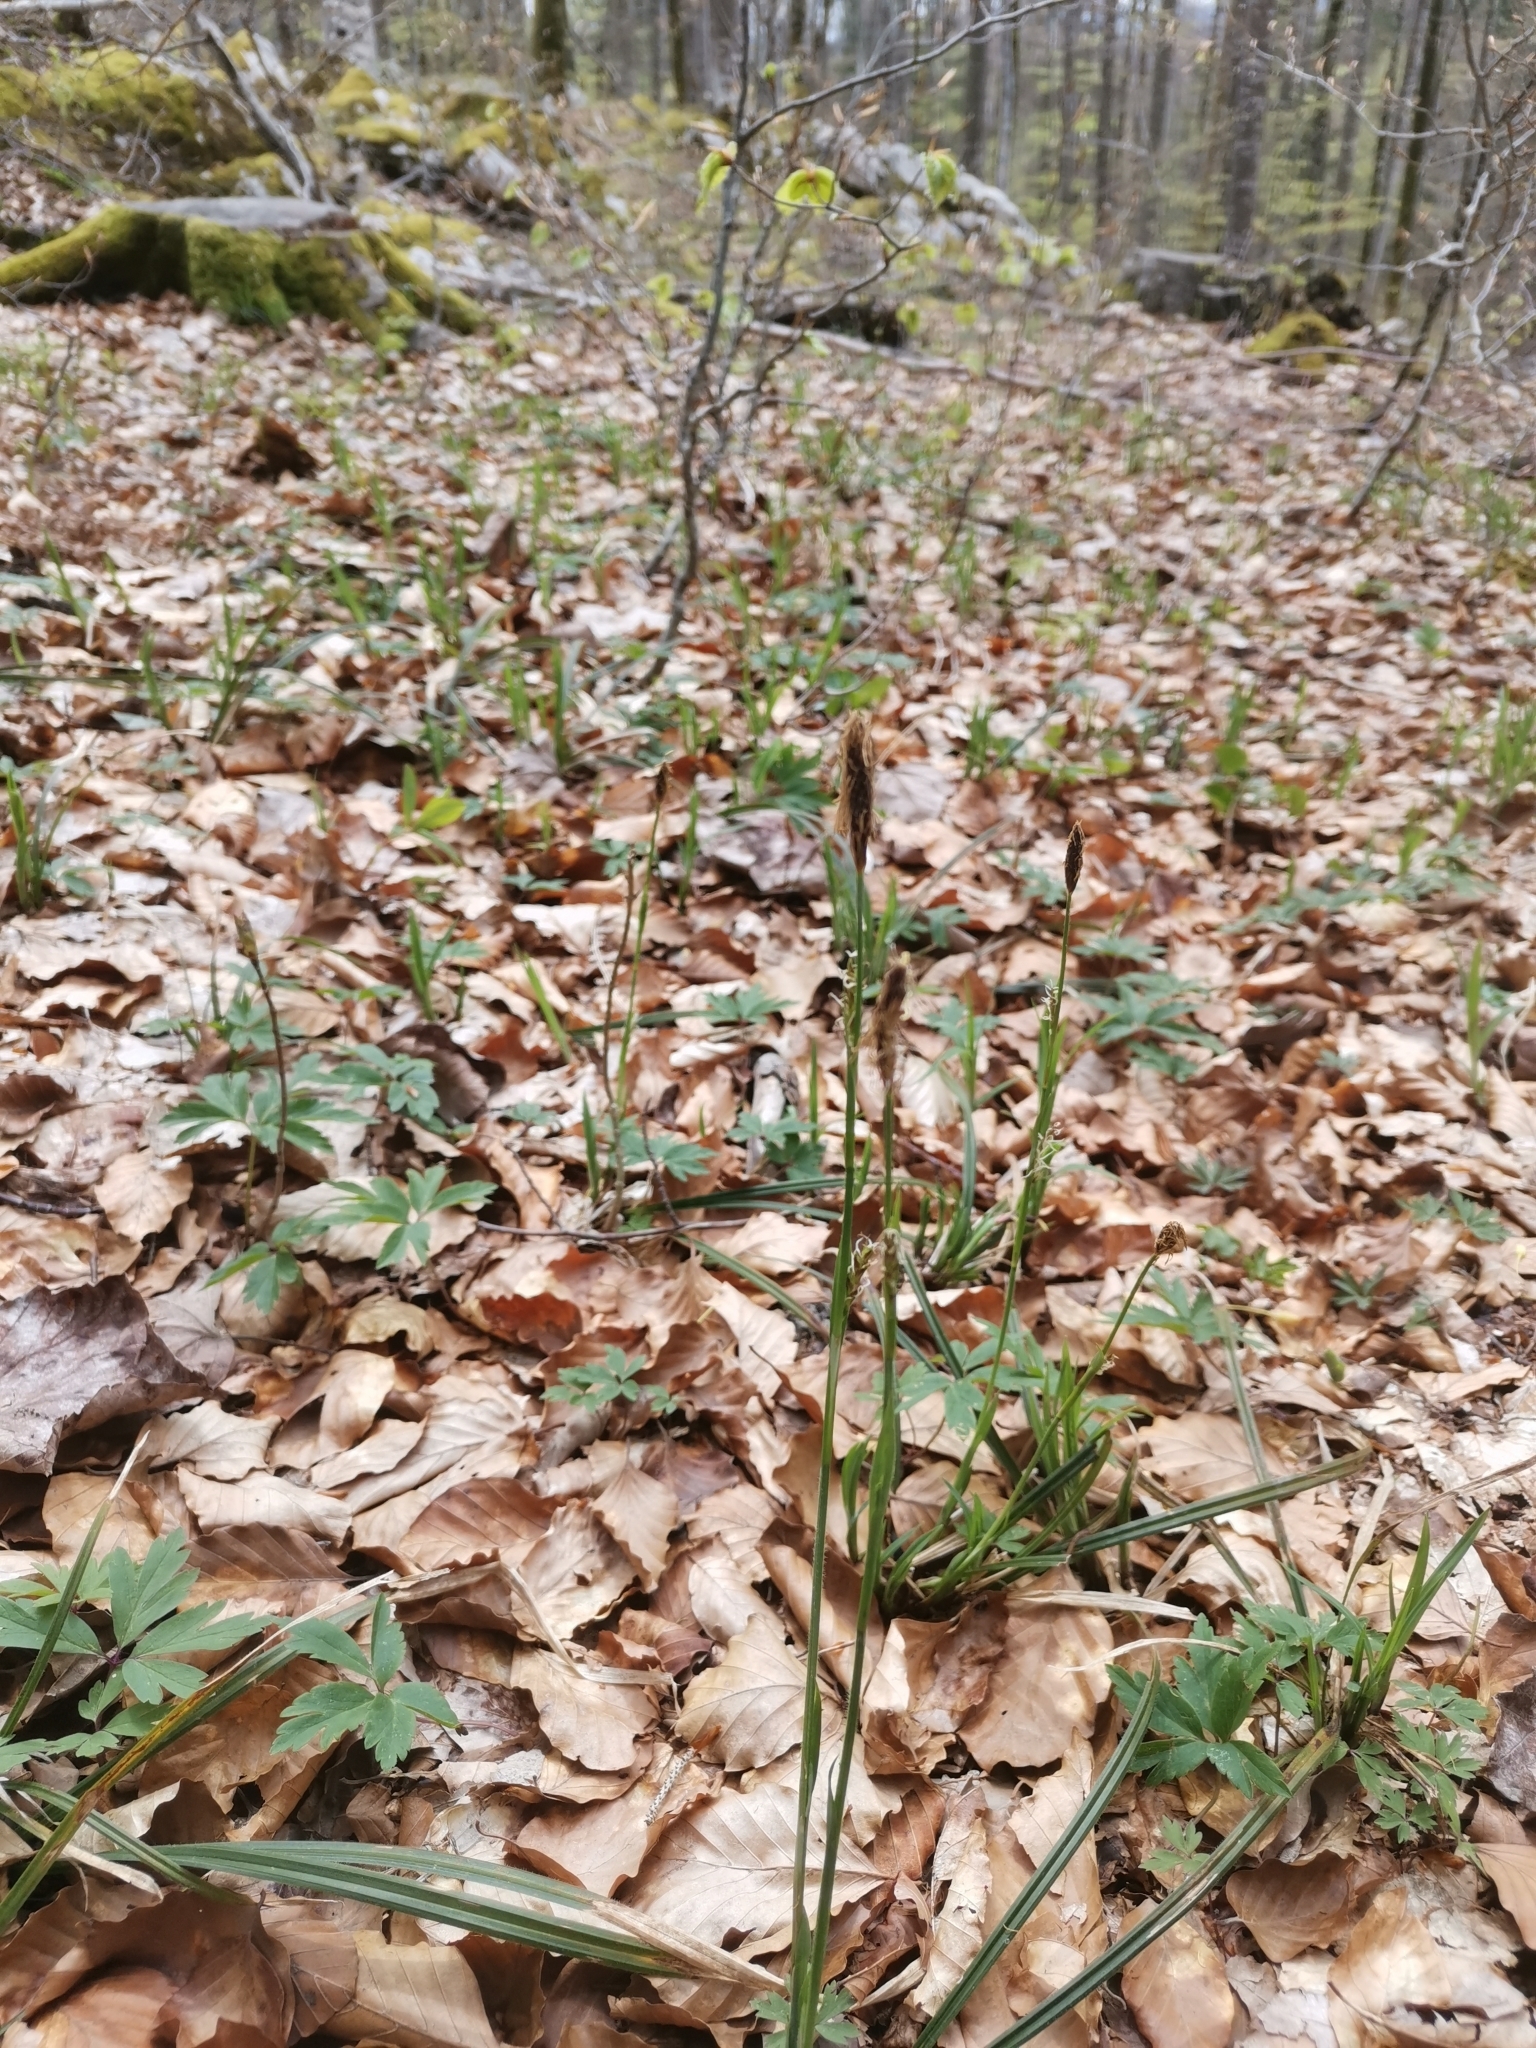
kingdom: Plantae
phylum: Tracheophyta
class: Liliopsida
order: Poales
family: Cyperaceae
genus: Carex
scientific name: Carex pilosa
